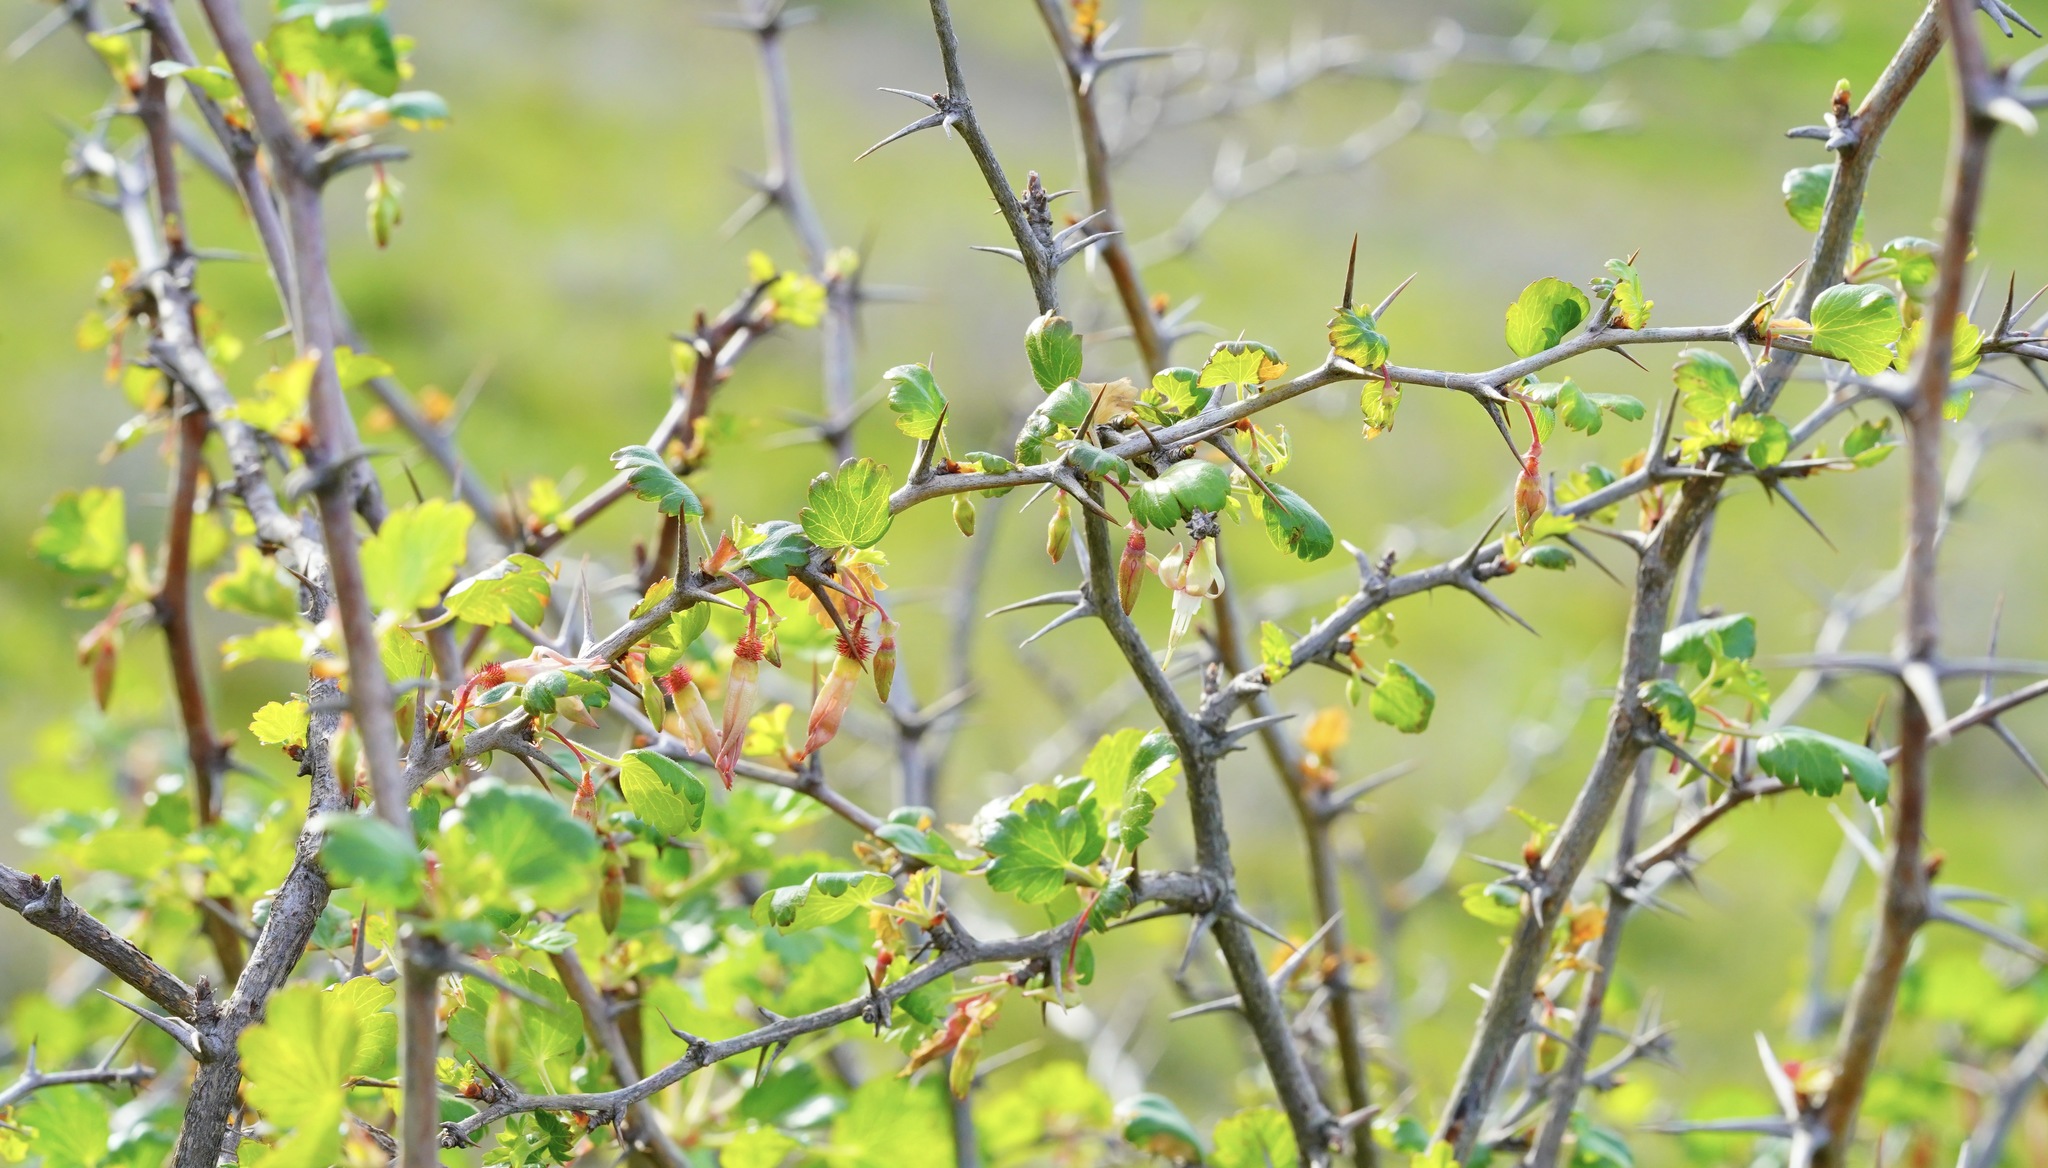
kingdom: Plantae
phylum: Tracheophyta
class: Magnoliopsida
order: Saxifragales
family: Grossulariaceae
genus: Ribes
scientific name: Ribes californicum
